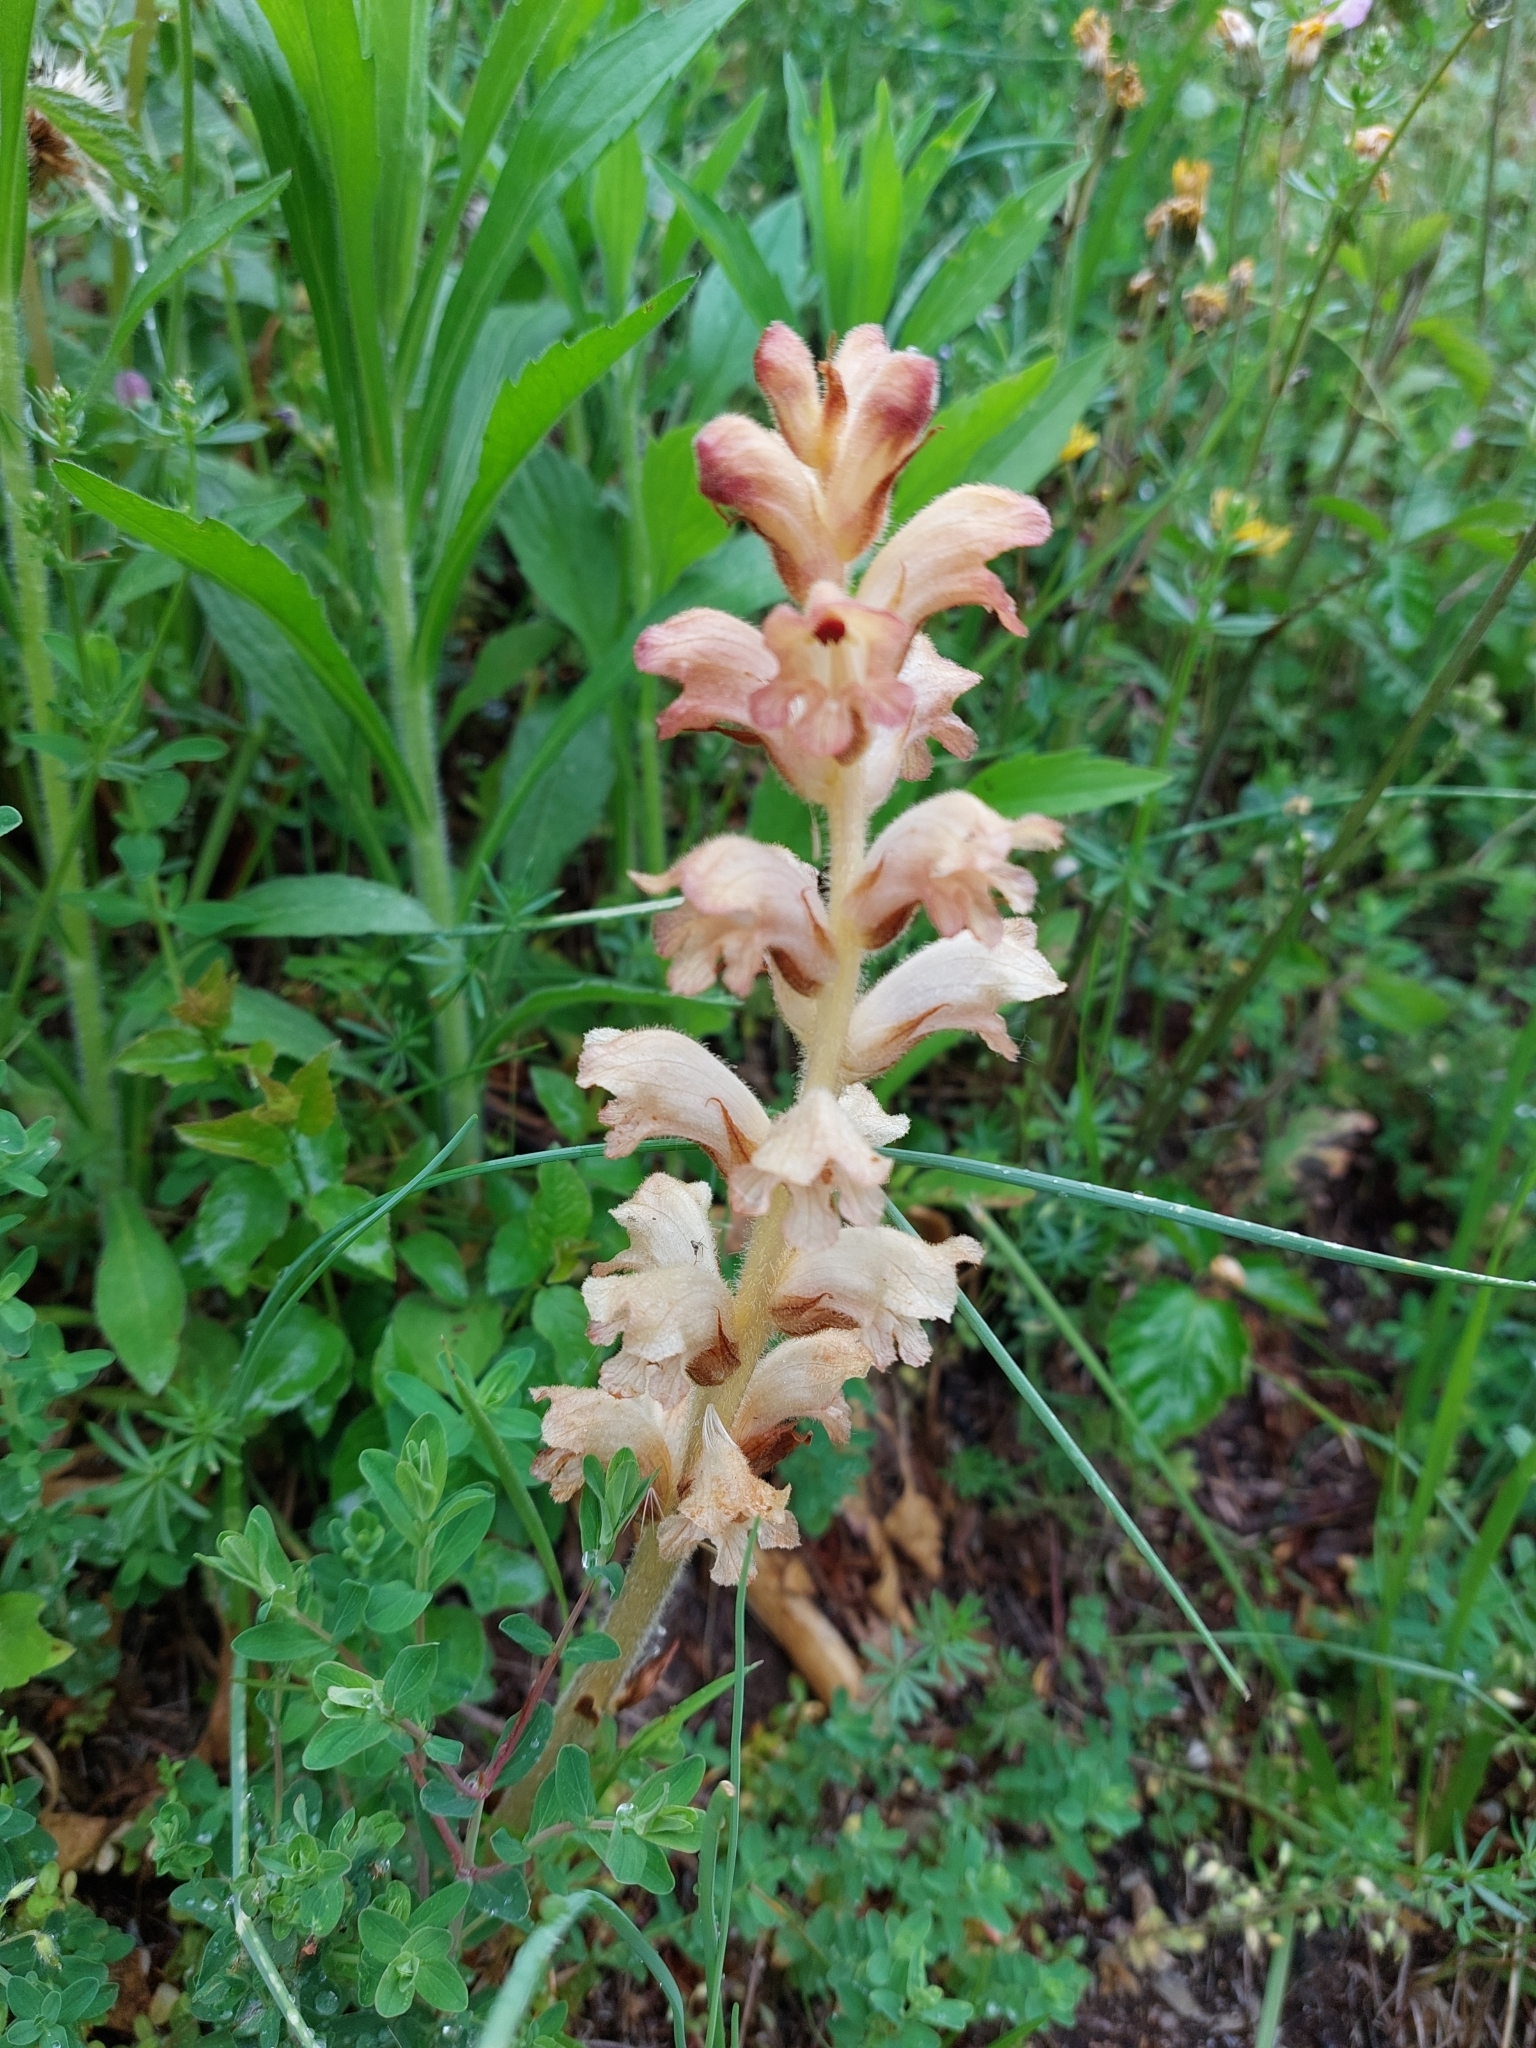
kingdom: Plantae
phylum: Tracheophyta
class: Magnoliopsida
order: Lamiales
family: Orobanchaceae
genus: Orobanche
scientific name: Orobanche caryophyllacea
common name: Bedstraw broomrape
